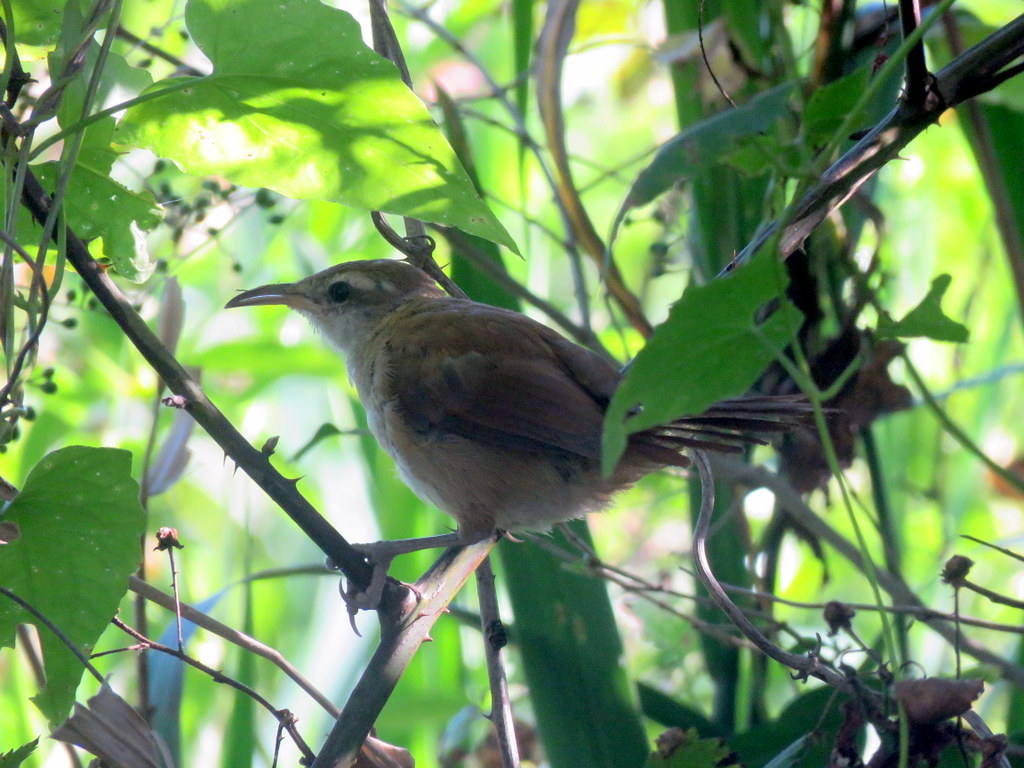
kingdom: Animalia
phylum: Chordata
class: Aves
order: Passeriformes
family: Furnariidae
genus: Limnornis
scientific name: Limnornis curvirostris
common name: Curve-billed reedhaunter
